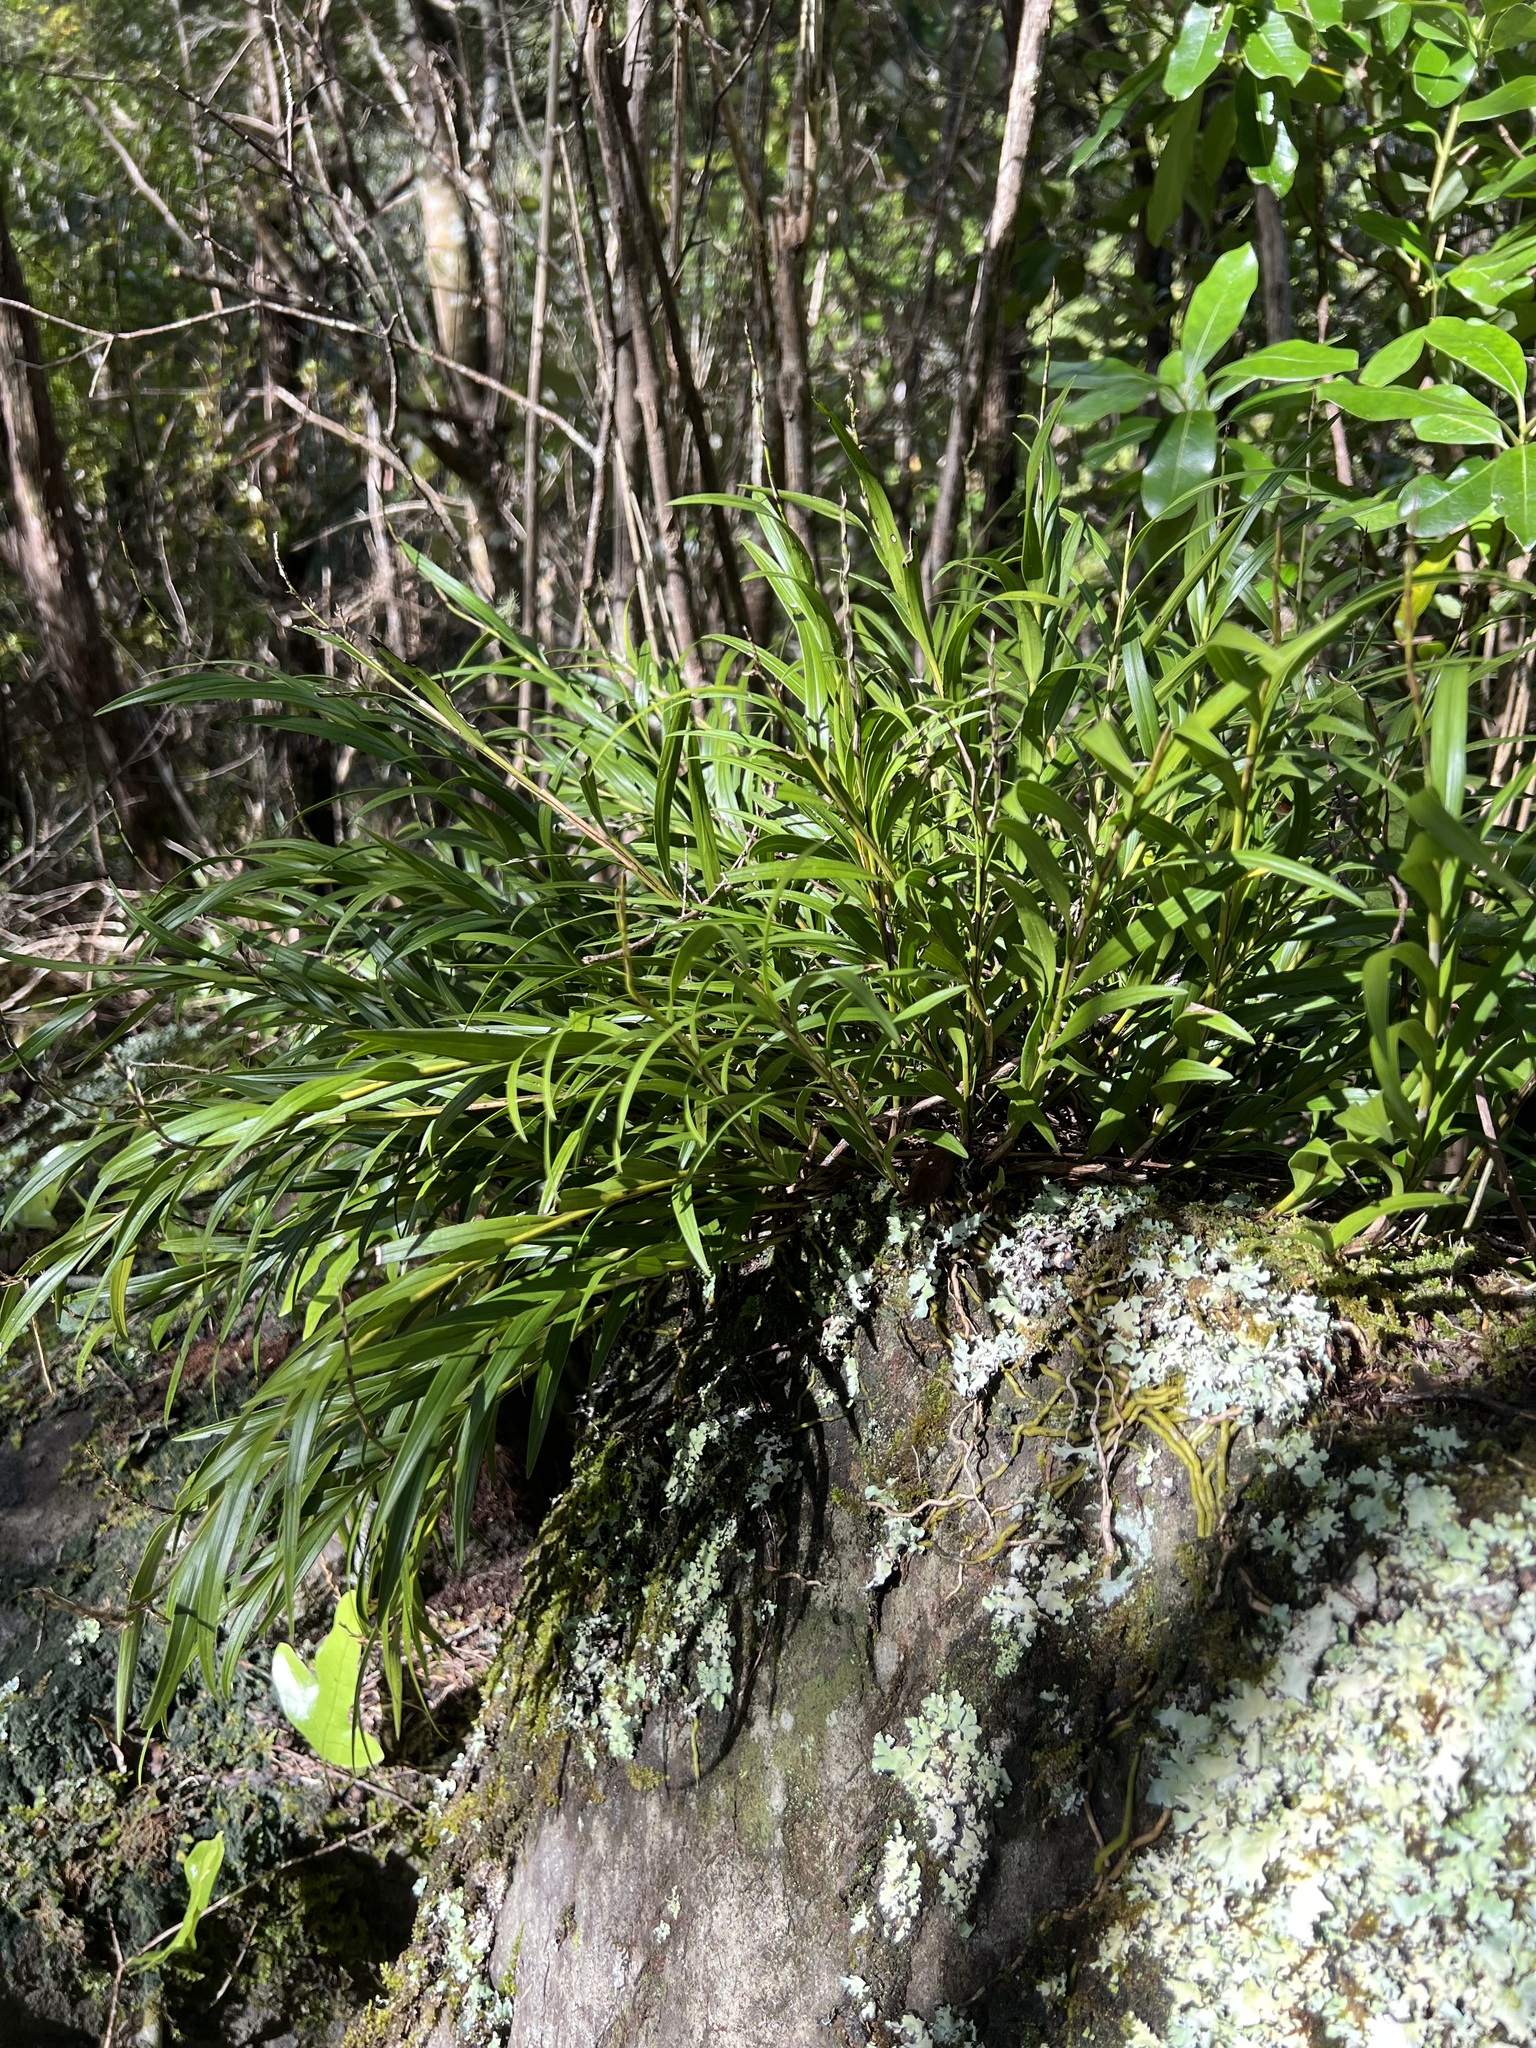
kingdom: Plantae
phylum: Tracheophyta
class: Liliopsida
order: Asparagales
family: Orchidaceae
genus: Earina
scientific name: Earina autumnalis
